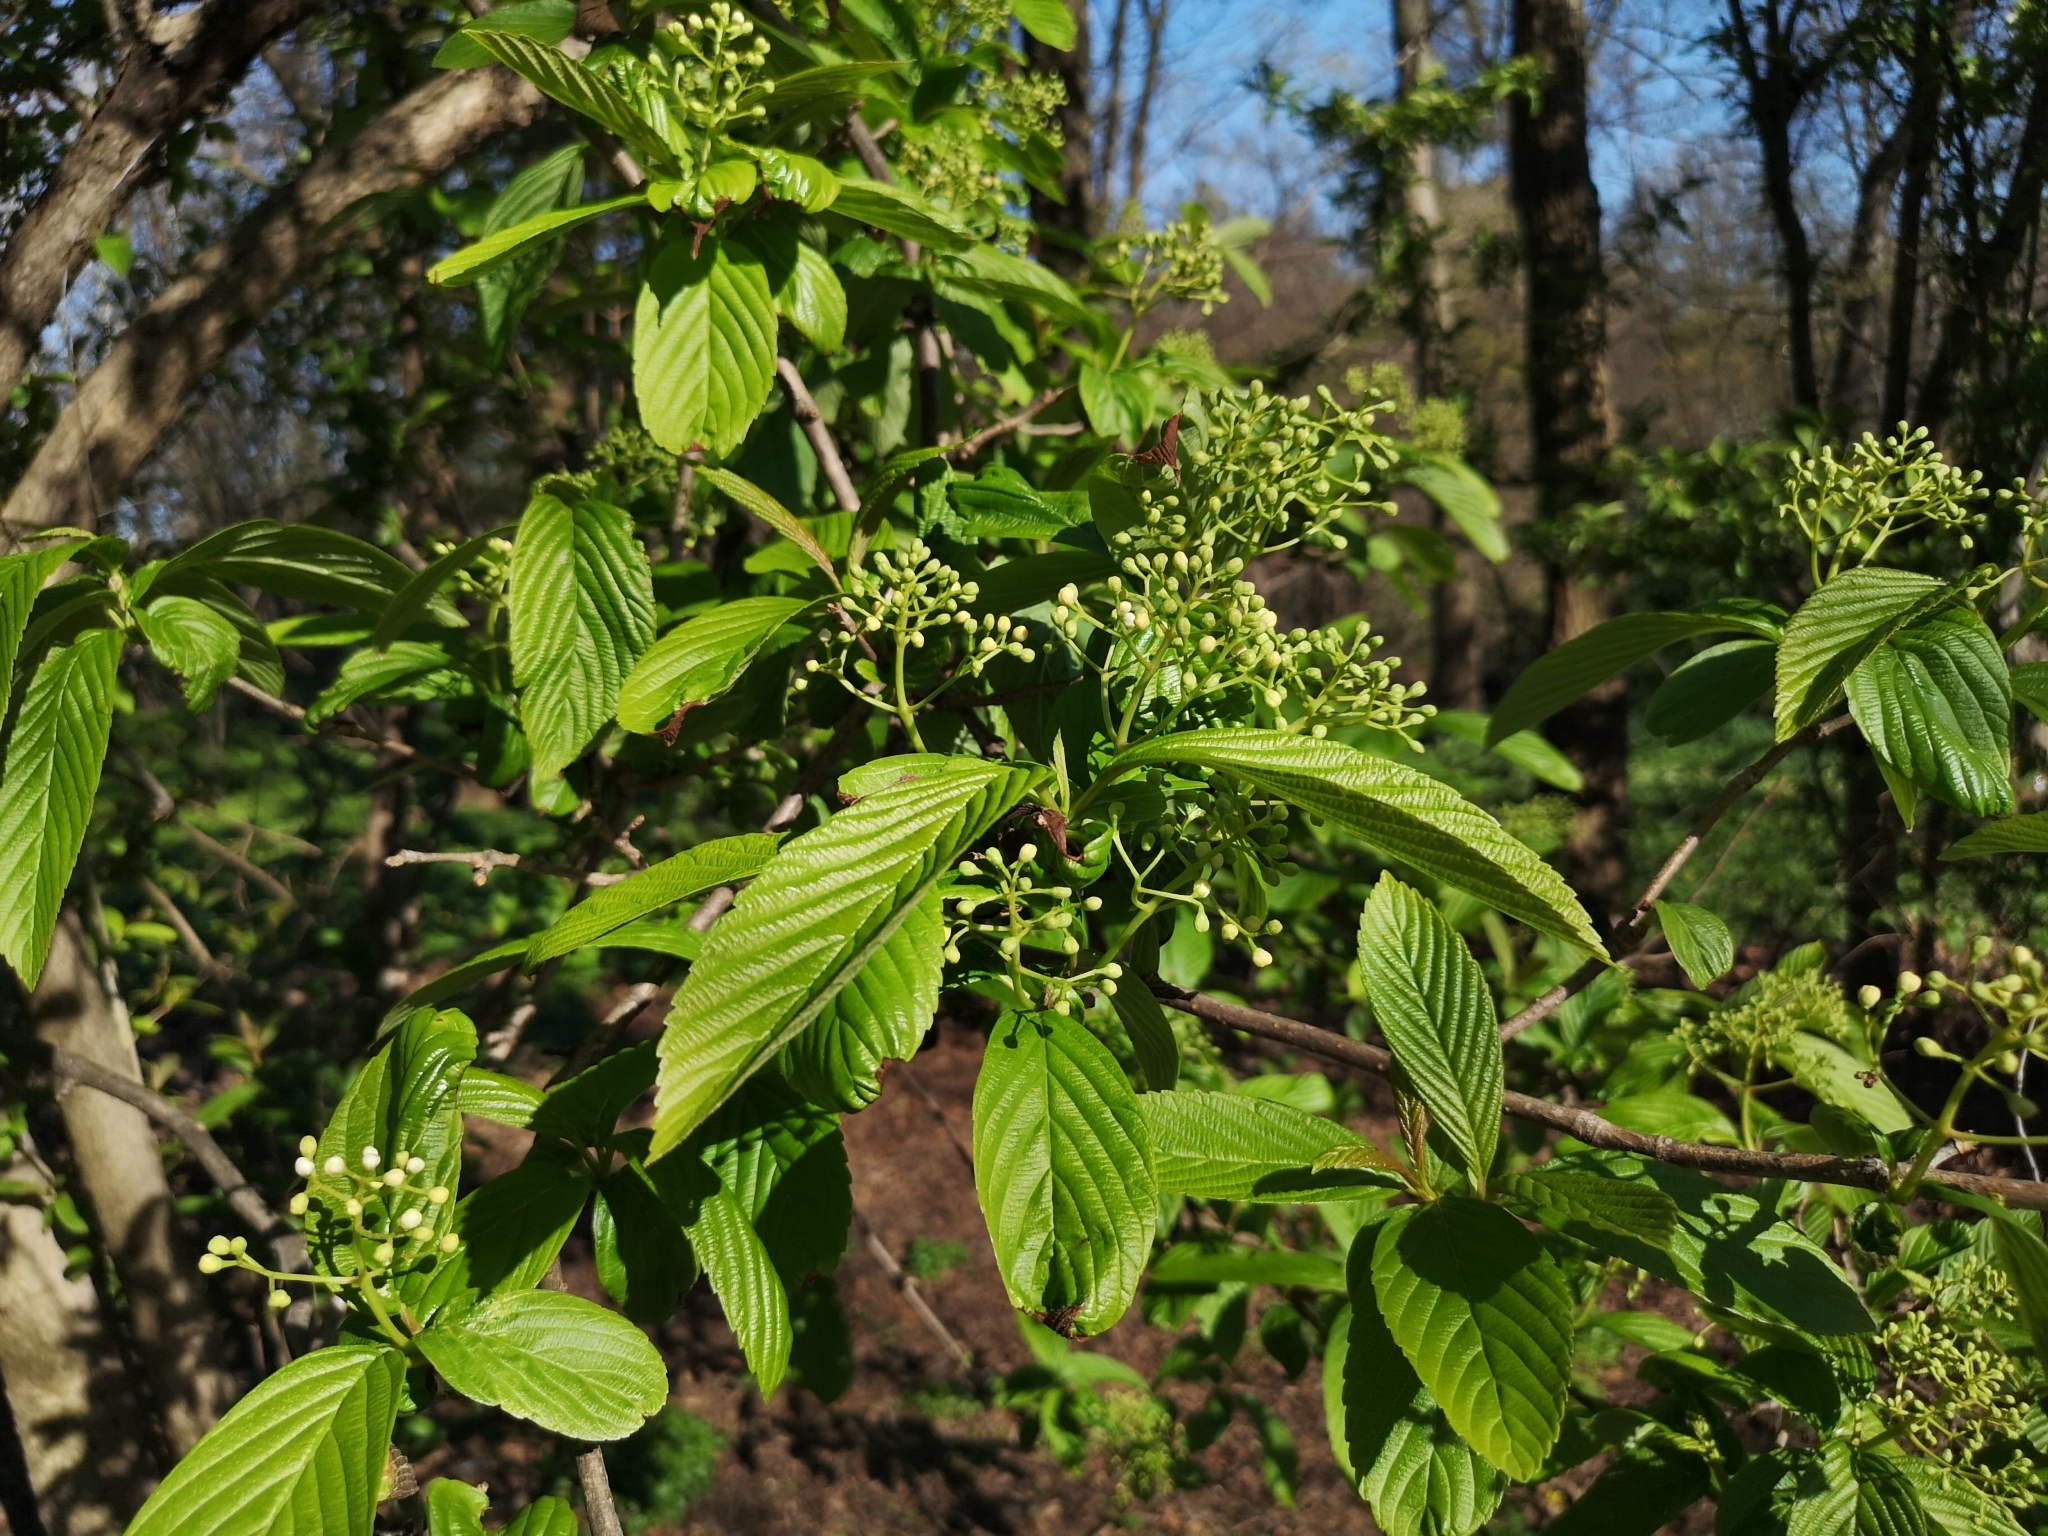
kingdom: Plantae
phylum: Tracheophyta
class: Magnoliopsida
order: Dipsacales
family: Viburnaceae
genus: Viburnum
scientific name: Viburnum sieboldii
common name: Siebold's arrowwood
